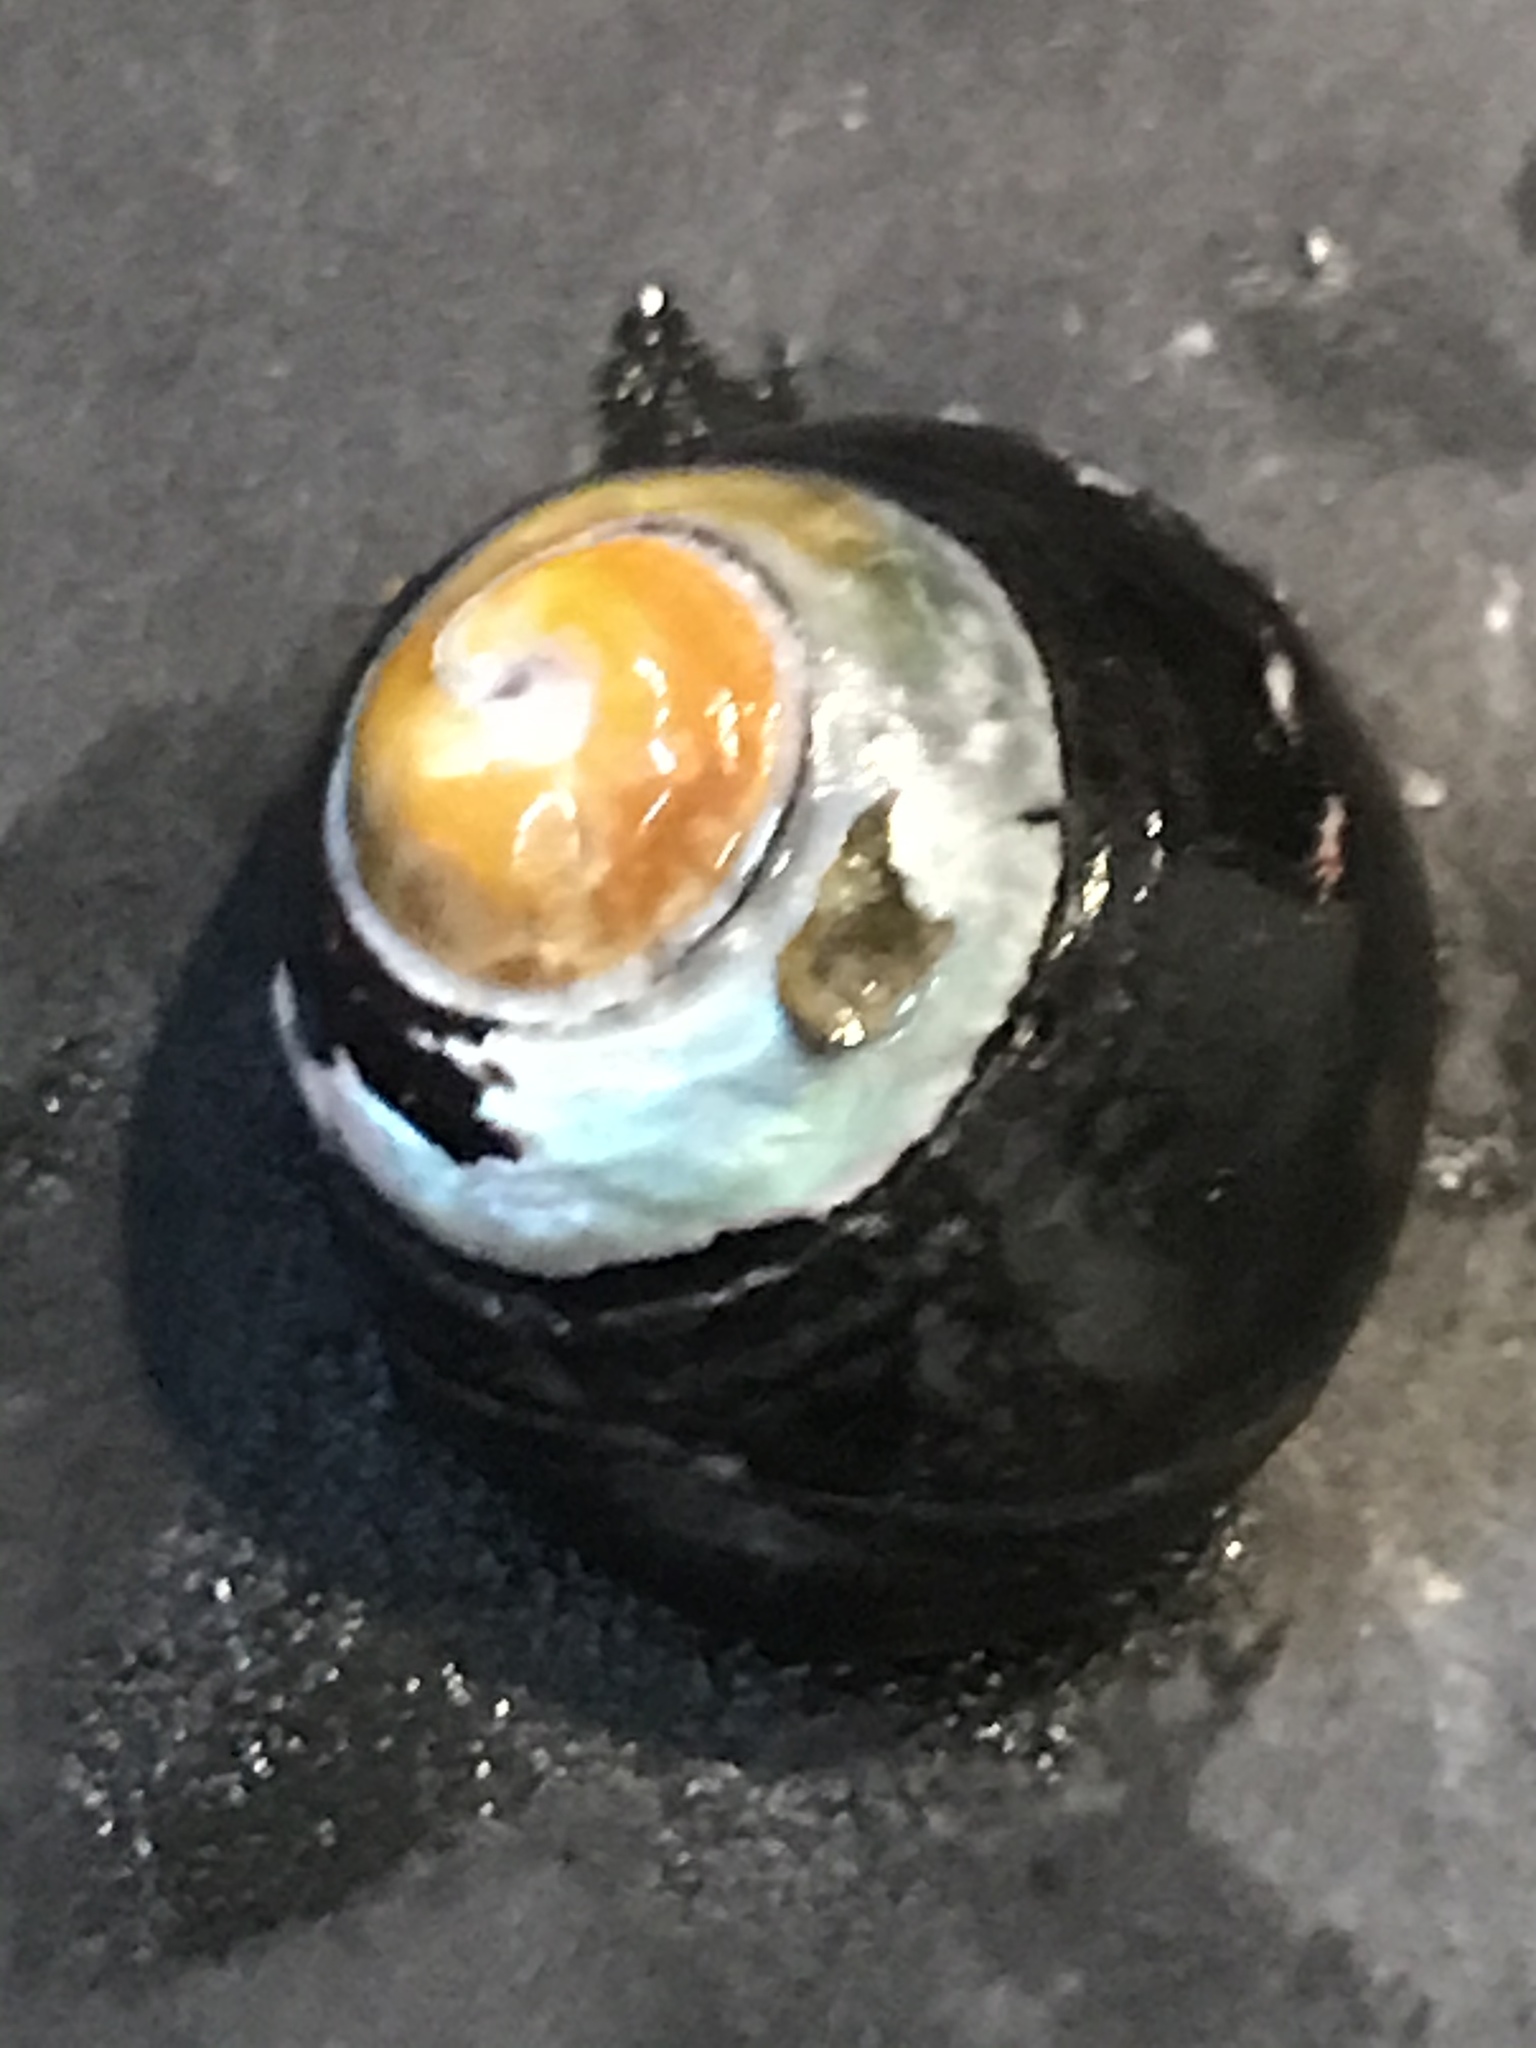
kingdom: Animalia
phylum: Mollusca
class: Gastropoda
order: Trochida
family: Tegulidae
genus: Tegula
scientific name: Tegula funebralis
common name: Black tegula
